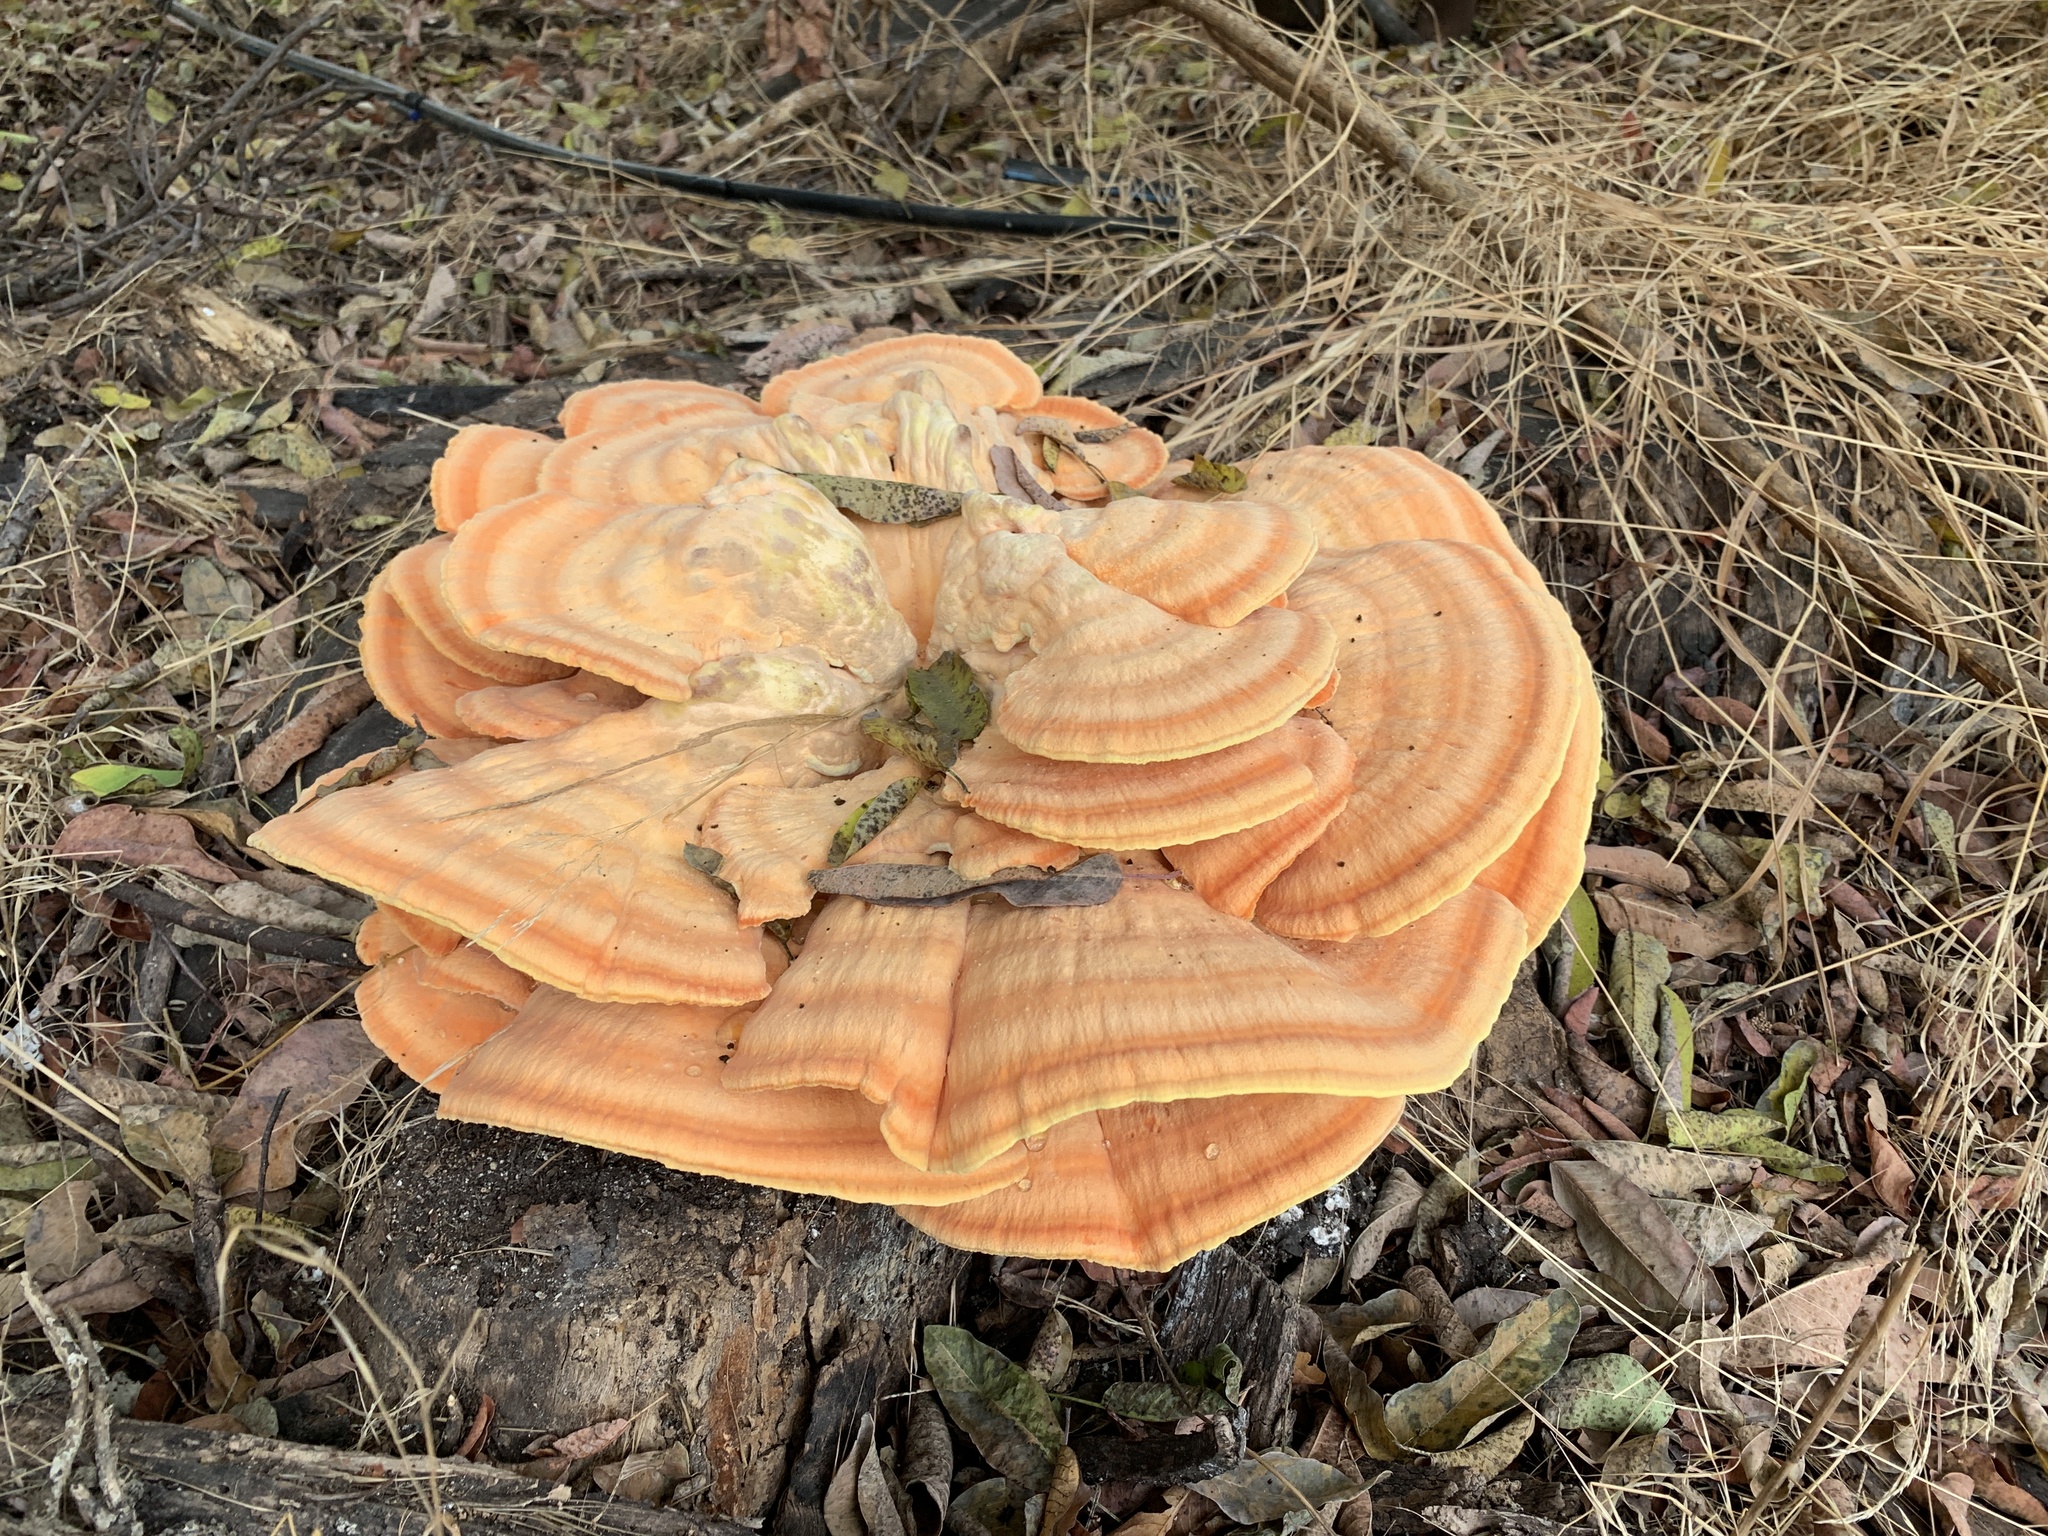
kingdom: Fungi
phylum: Basidiomycota
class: Agaricomycetes
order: Polyporales
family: Laetiporaceae
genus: Laetiporus
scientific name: Laetiporus gilbertsonii
